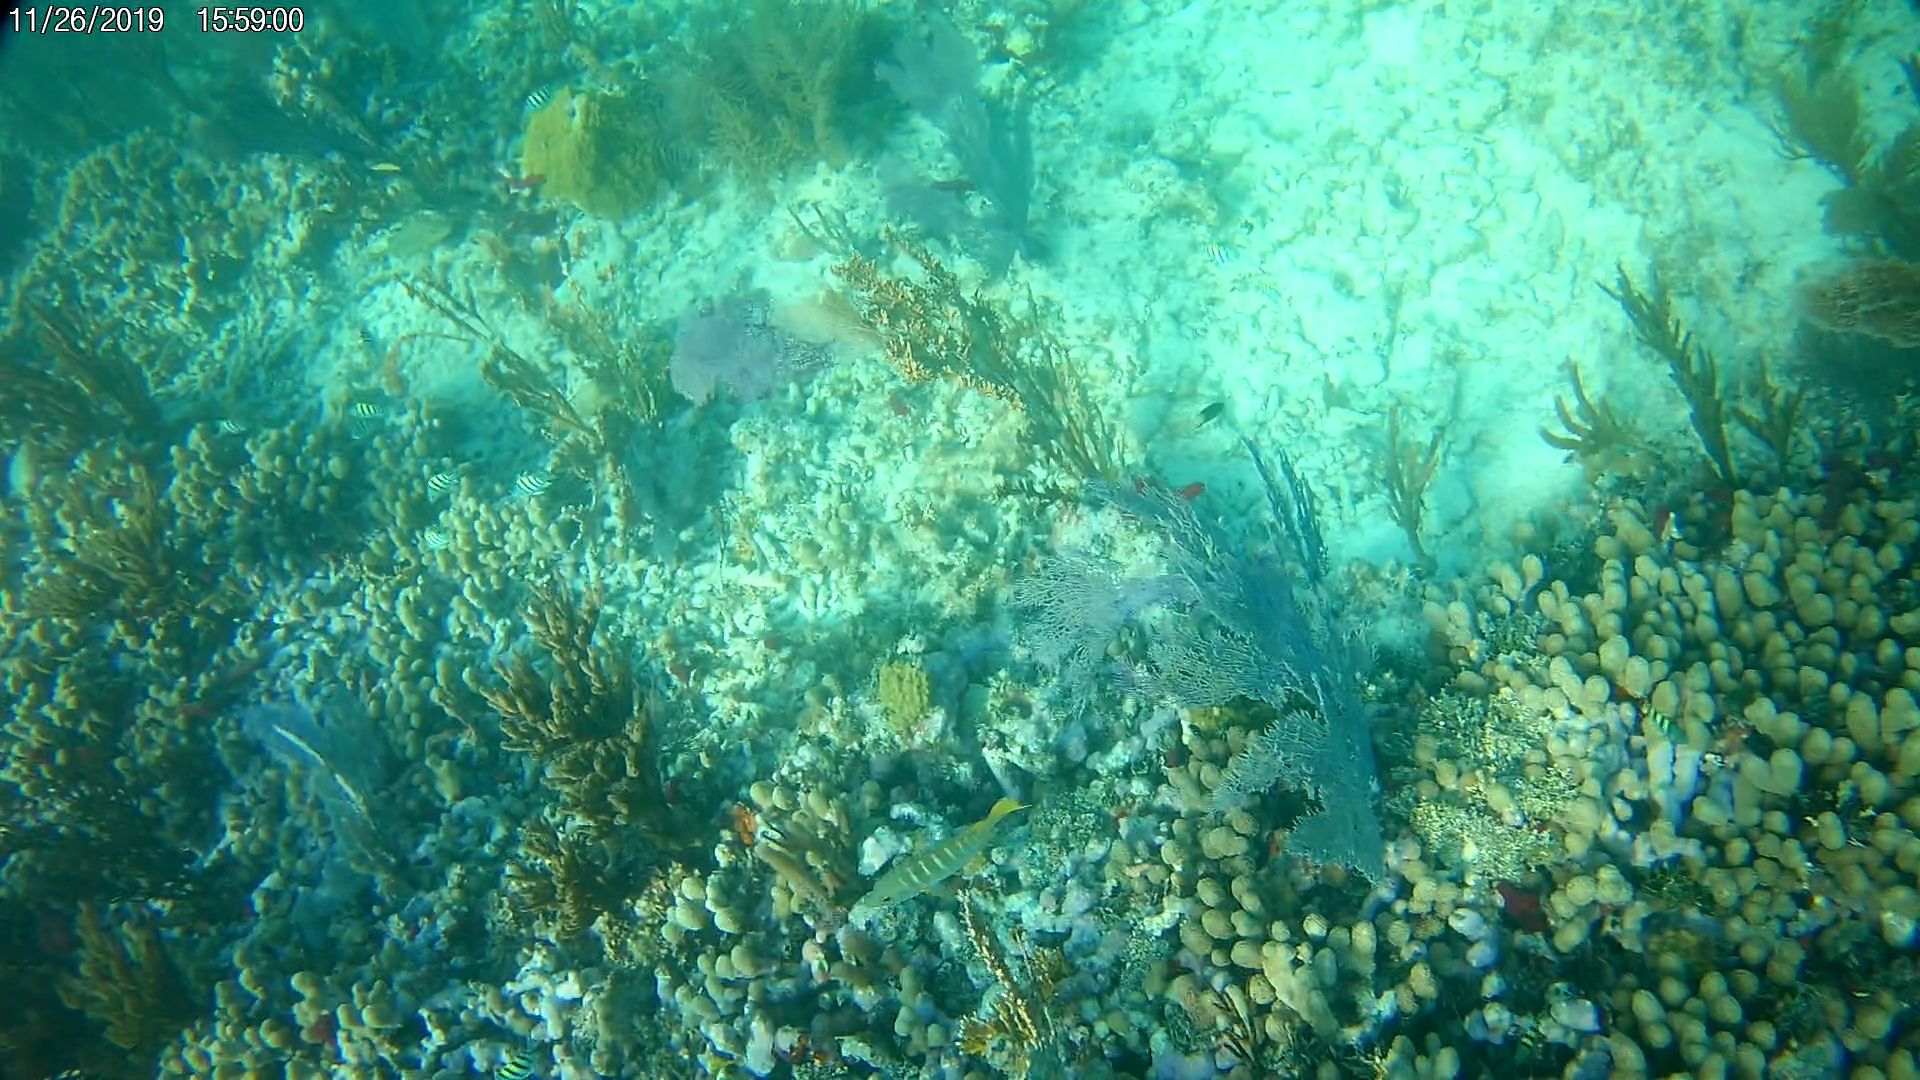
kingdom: Animalia
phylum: Chordata
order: Perciformes
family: Lutjanidae
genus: Lutjanus
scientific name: Lutjanus apodus
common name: Schoolmaster
